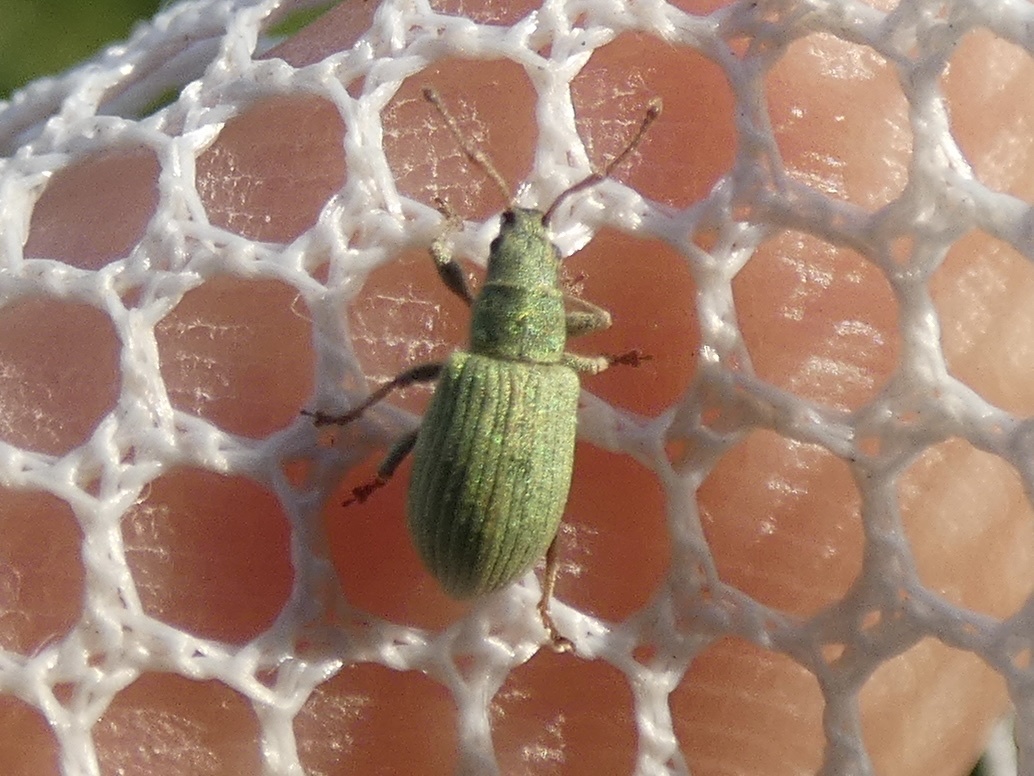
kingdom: Animalia
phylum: Arthropoda
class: Insecta
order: Coleoptera
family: Curculionidae
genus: Phyllobius
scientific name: Phyllobius virideaeris
